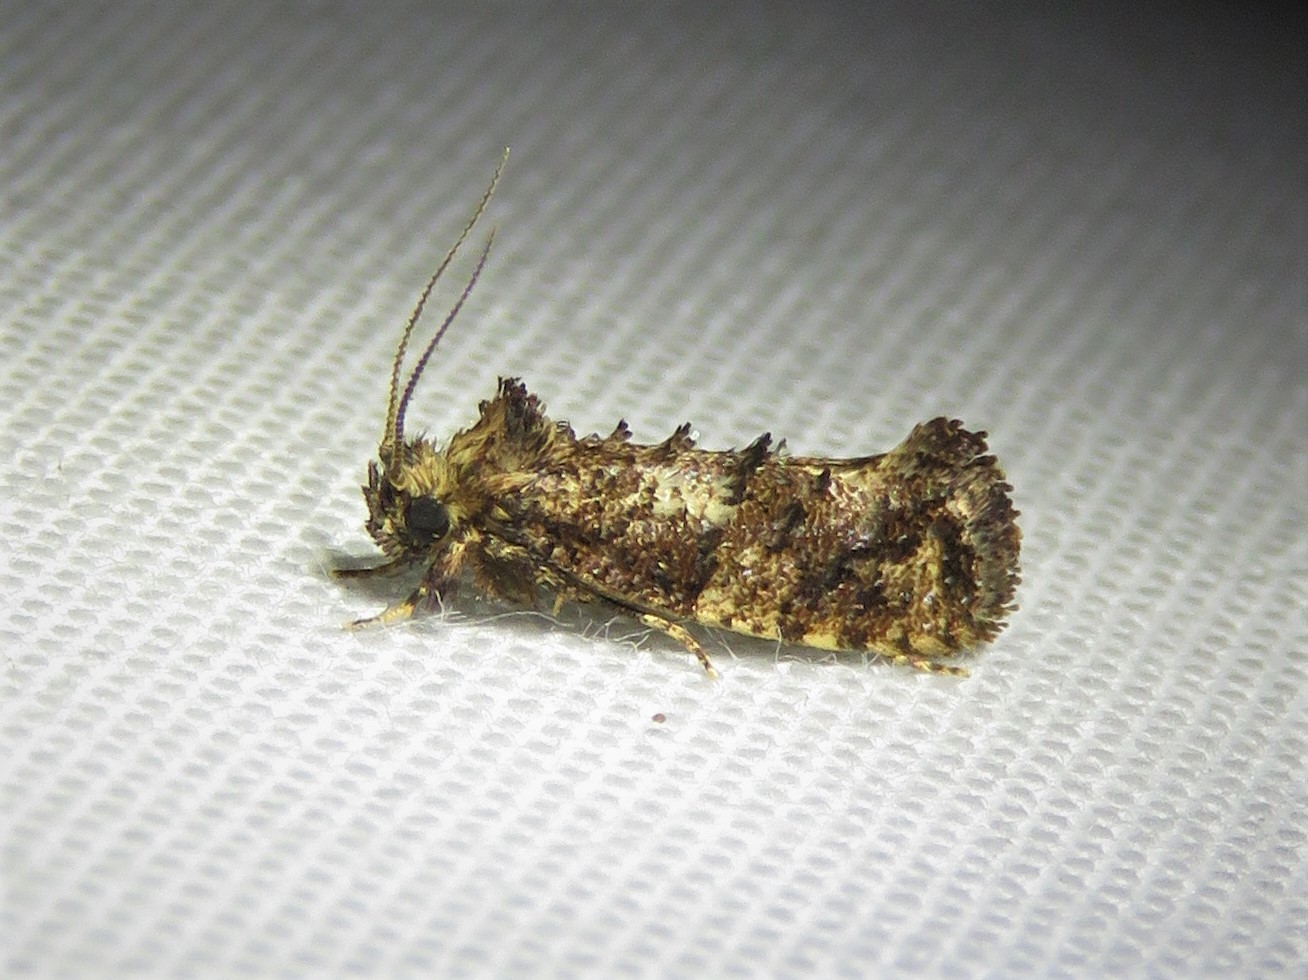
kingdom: Animalia
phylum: Arthropoda
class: Insecta
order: Lepidoptera
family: Tineidae
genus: Acrolophus
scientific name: Acrolophus cressoni
